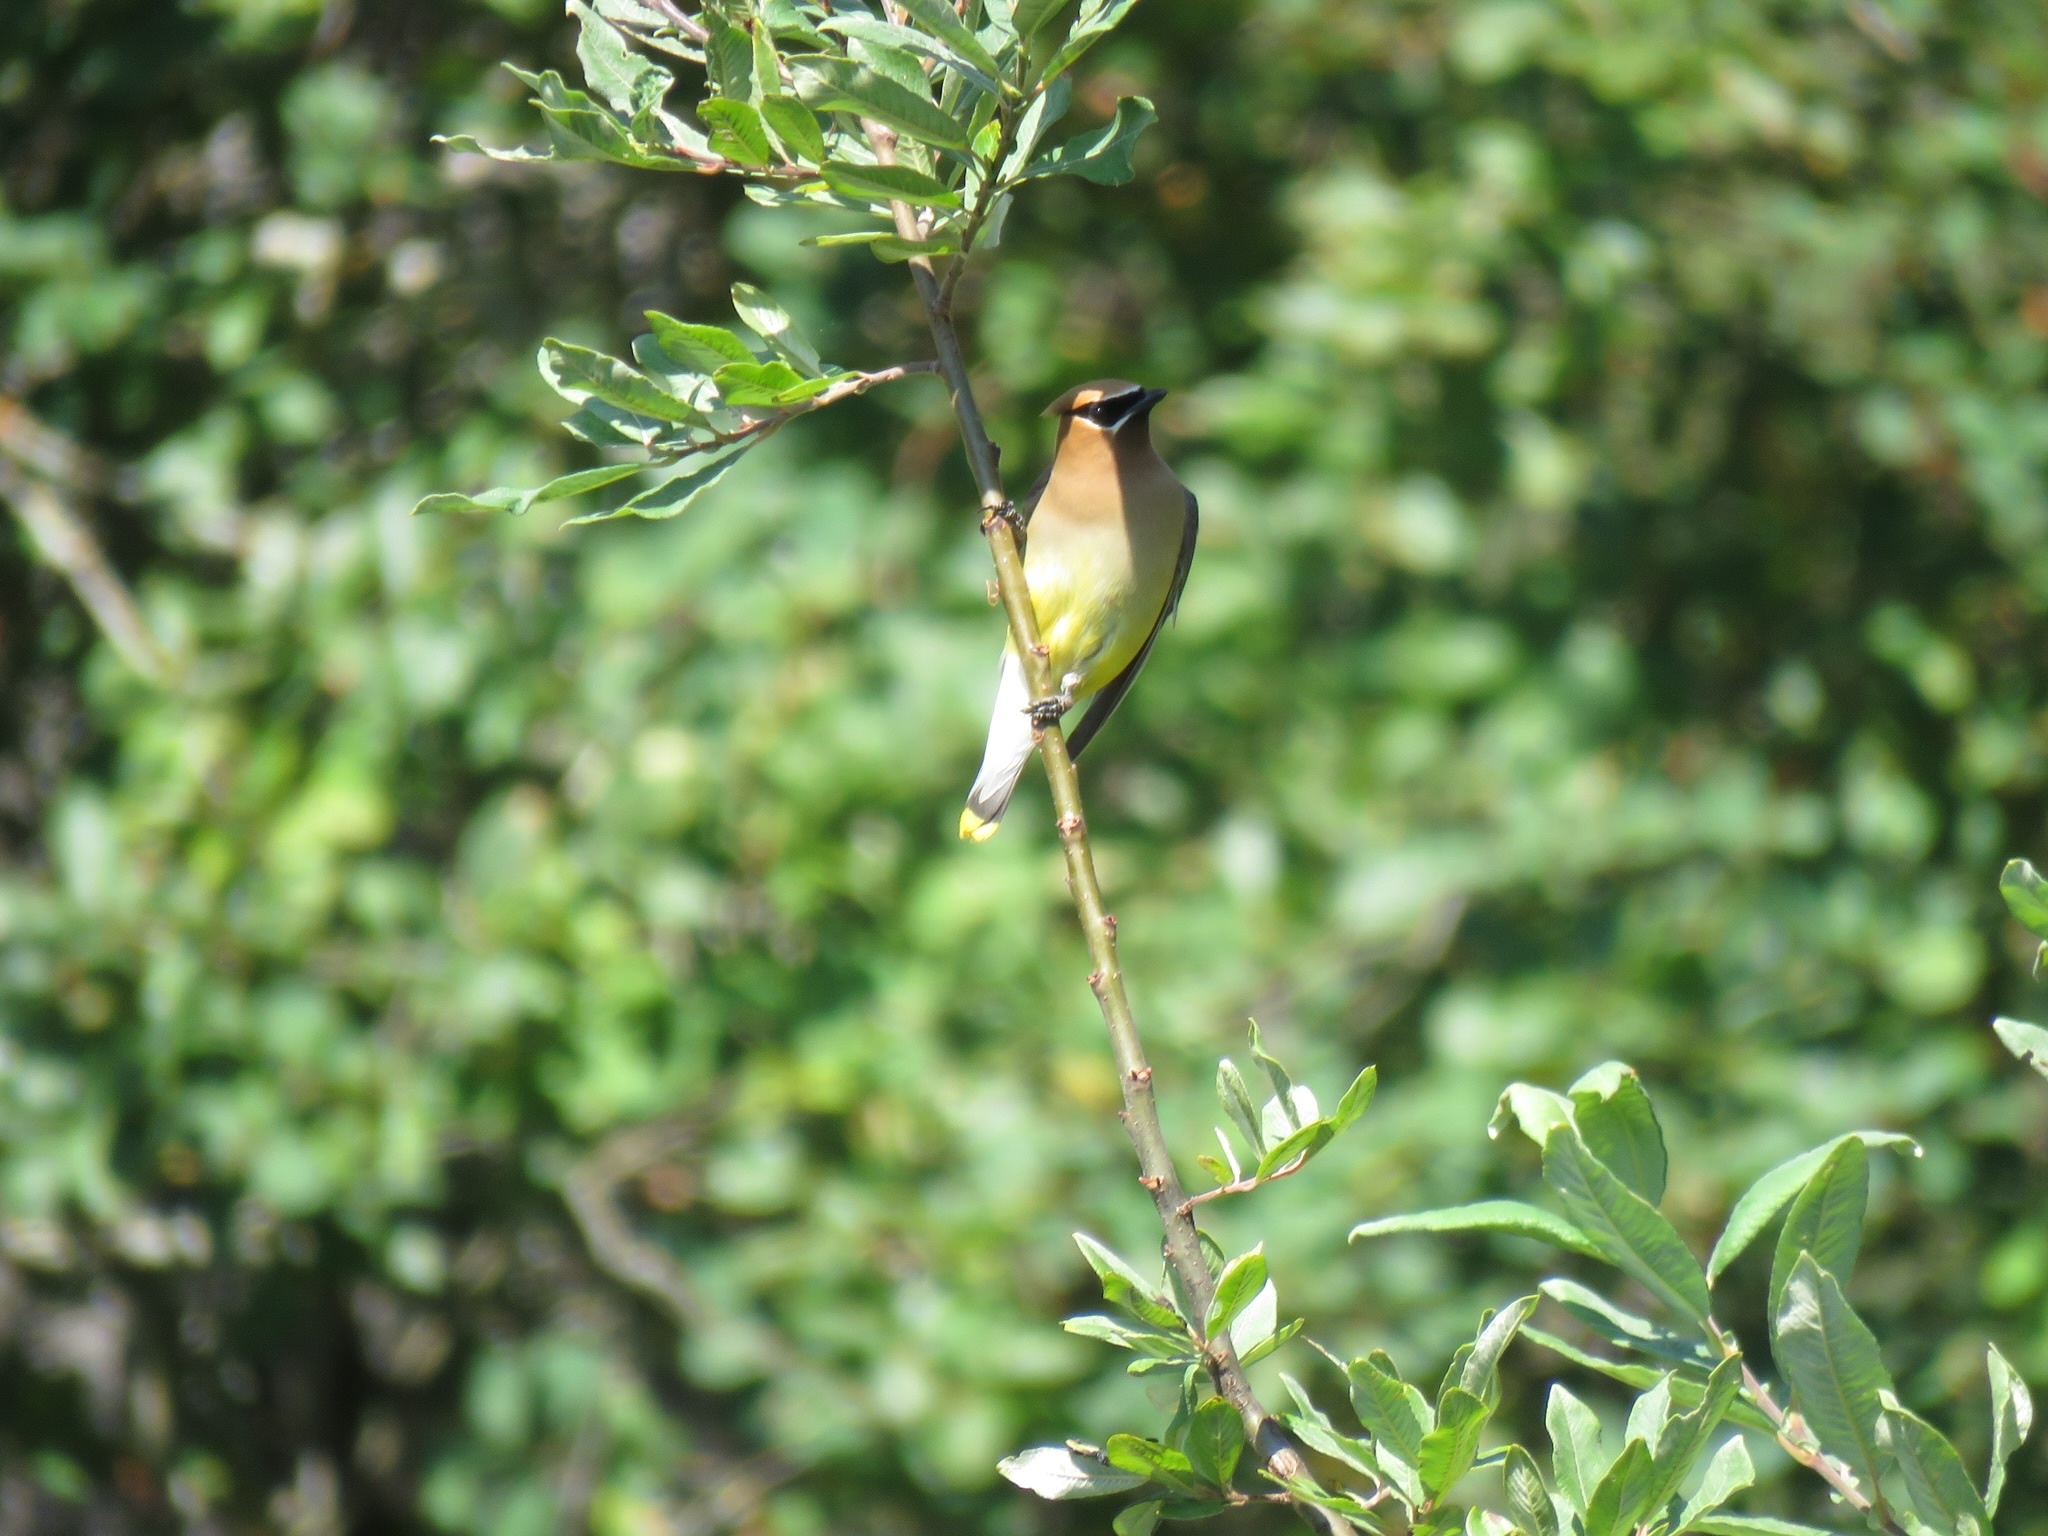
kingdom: Animalia
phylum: Chordata
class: Aves
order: Passeriformes
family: Bombycillidae
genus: Bombycilla
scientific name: Bombycilla cedrorum
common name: Cedar waxwing
